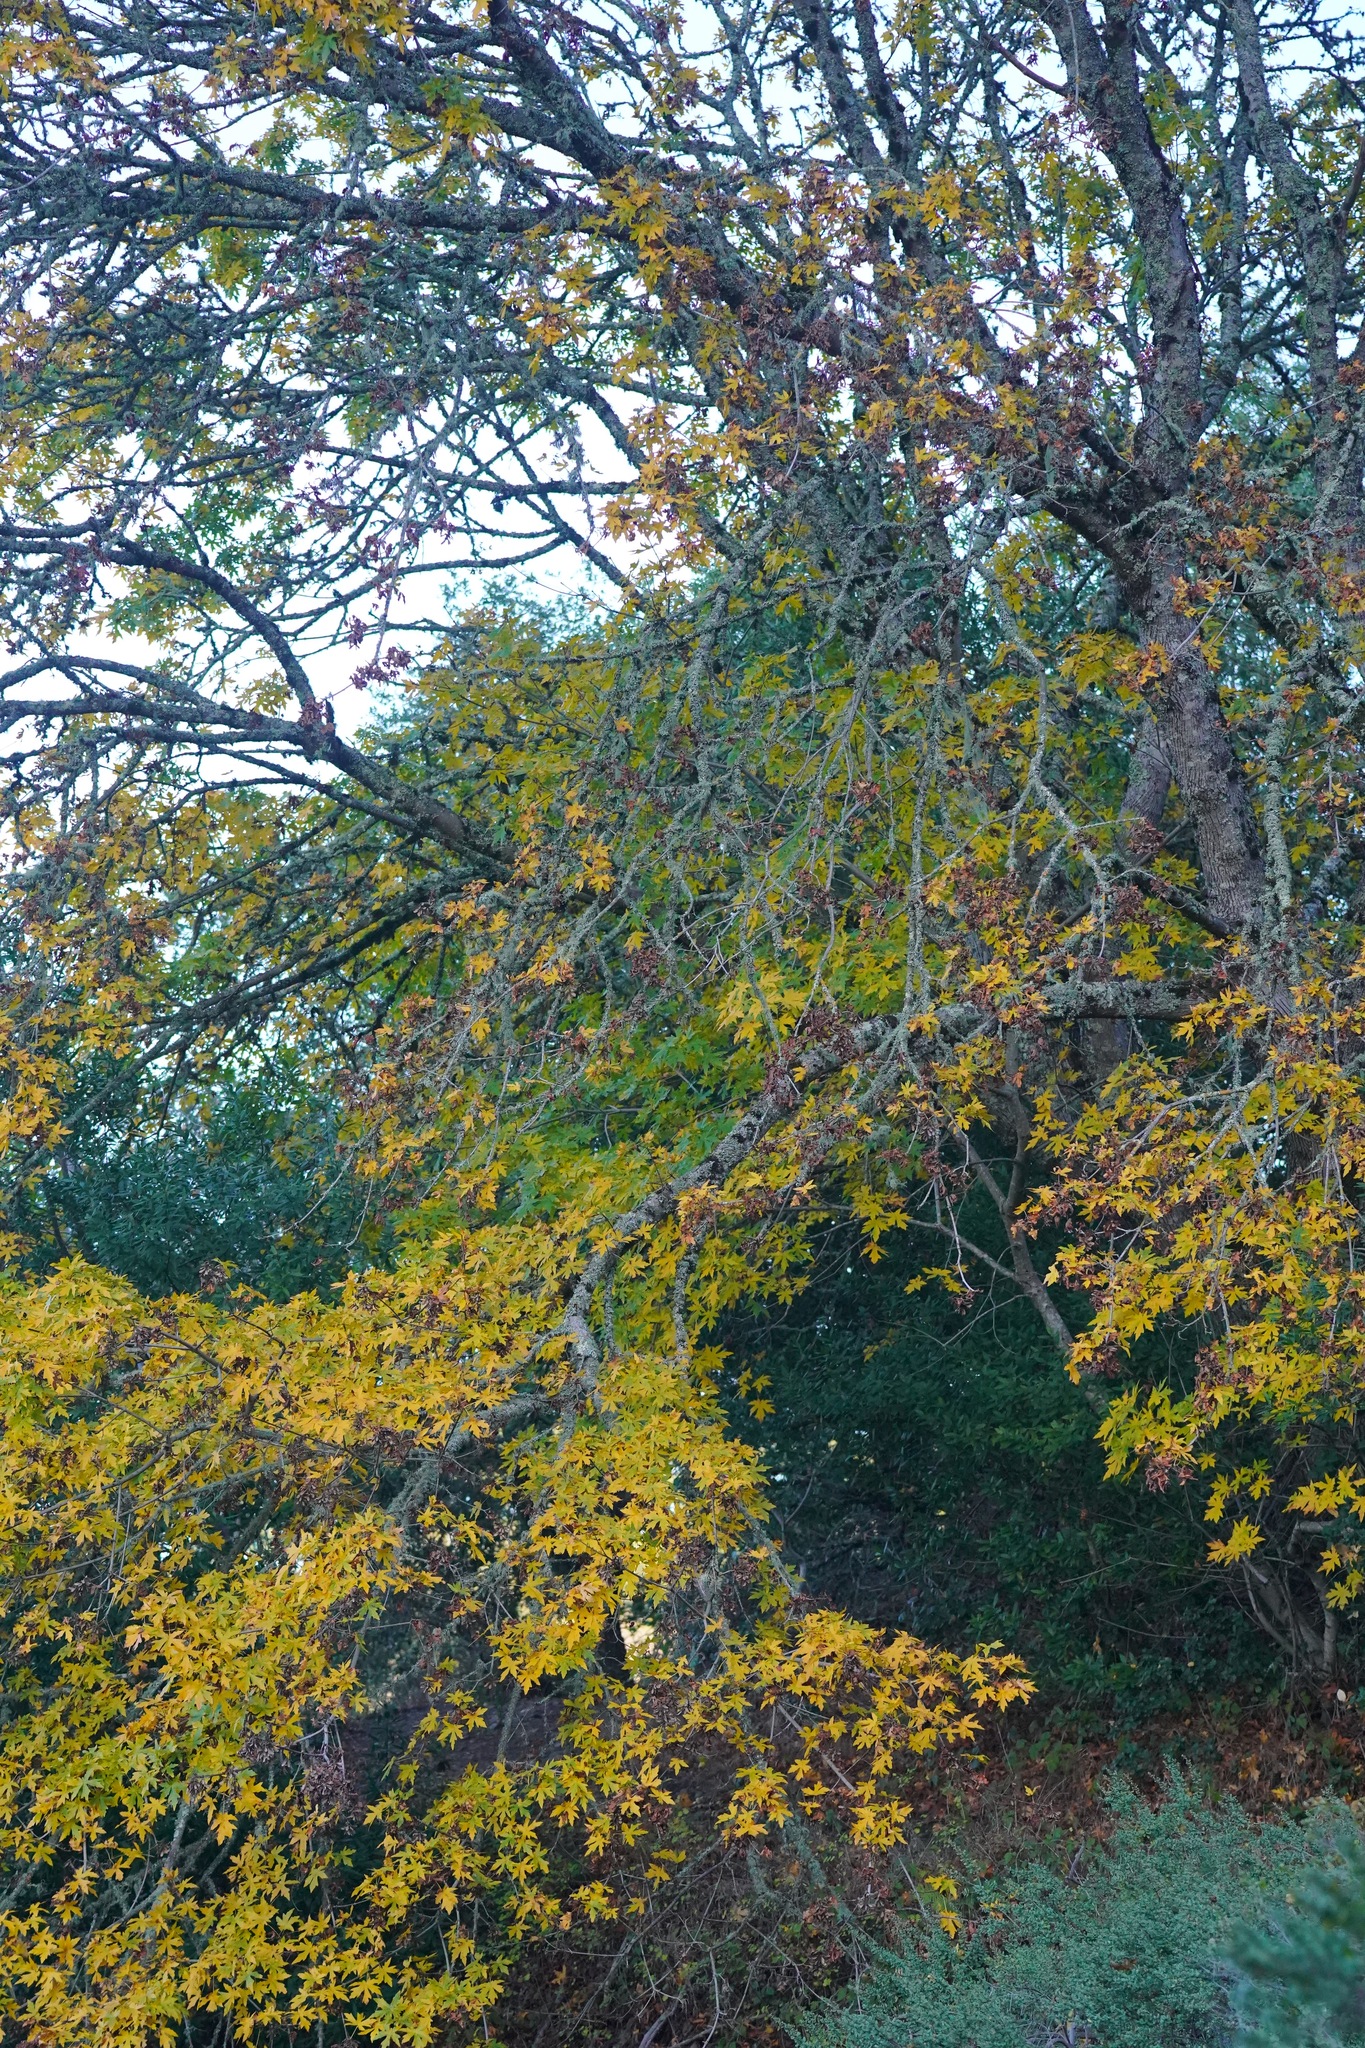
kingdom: Plantae
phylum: Tracheophyta
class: Magnoliopsida
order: Sapindales
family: Sapindaceae
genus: Acer
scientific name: Acer macrophyllum
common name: Oregon maple
